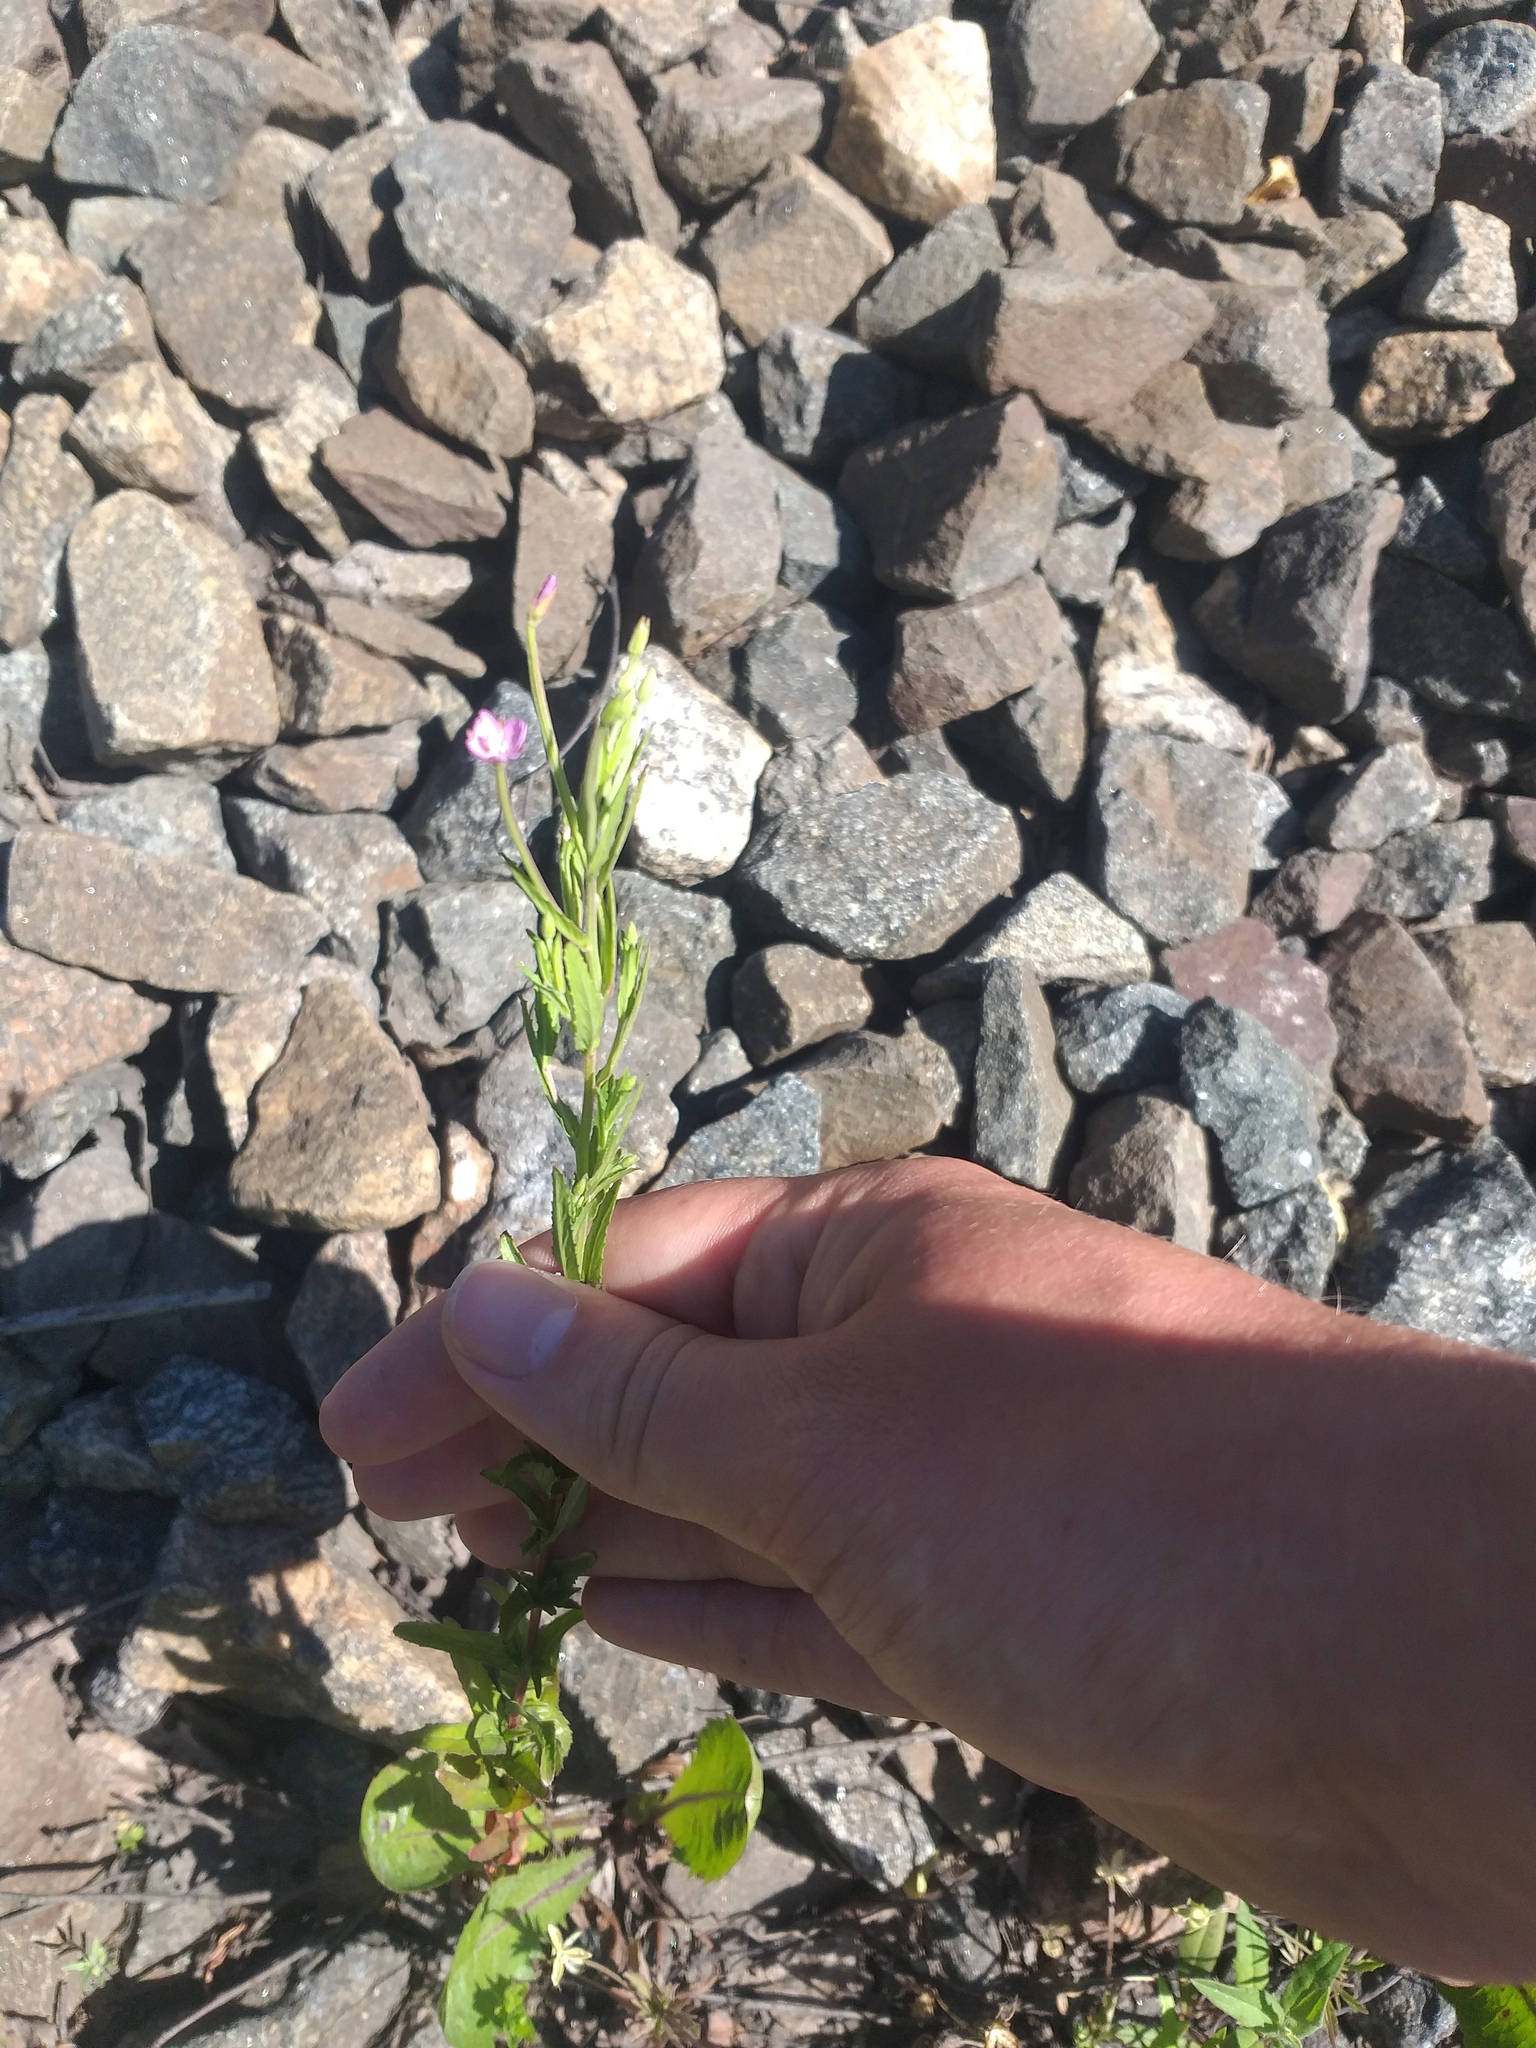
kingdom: Plantae
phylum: Tracheophyta
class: Magnoliopsida
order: Myrtales
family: Onagraceae
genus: Epilobium
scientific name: Epilobium tetragonum
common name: Square-stemmed willowherb
